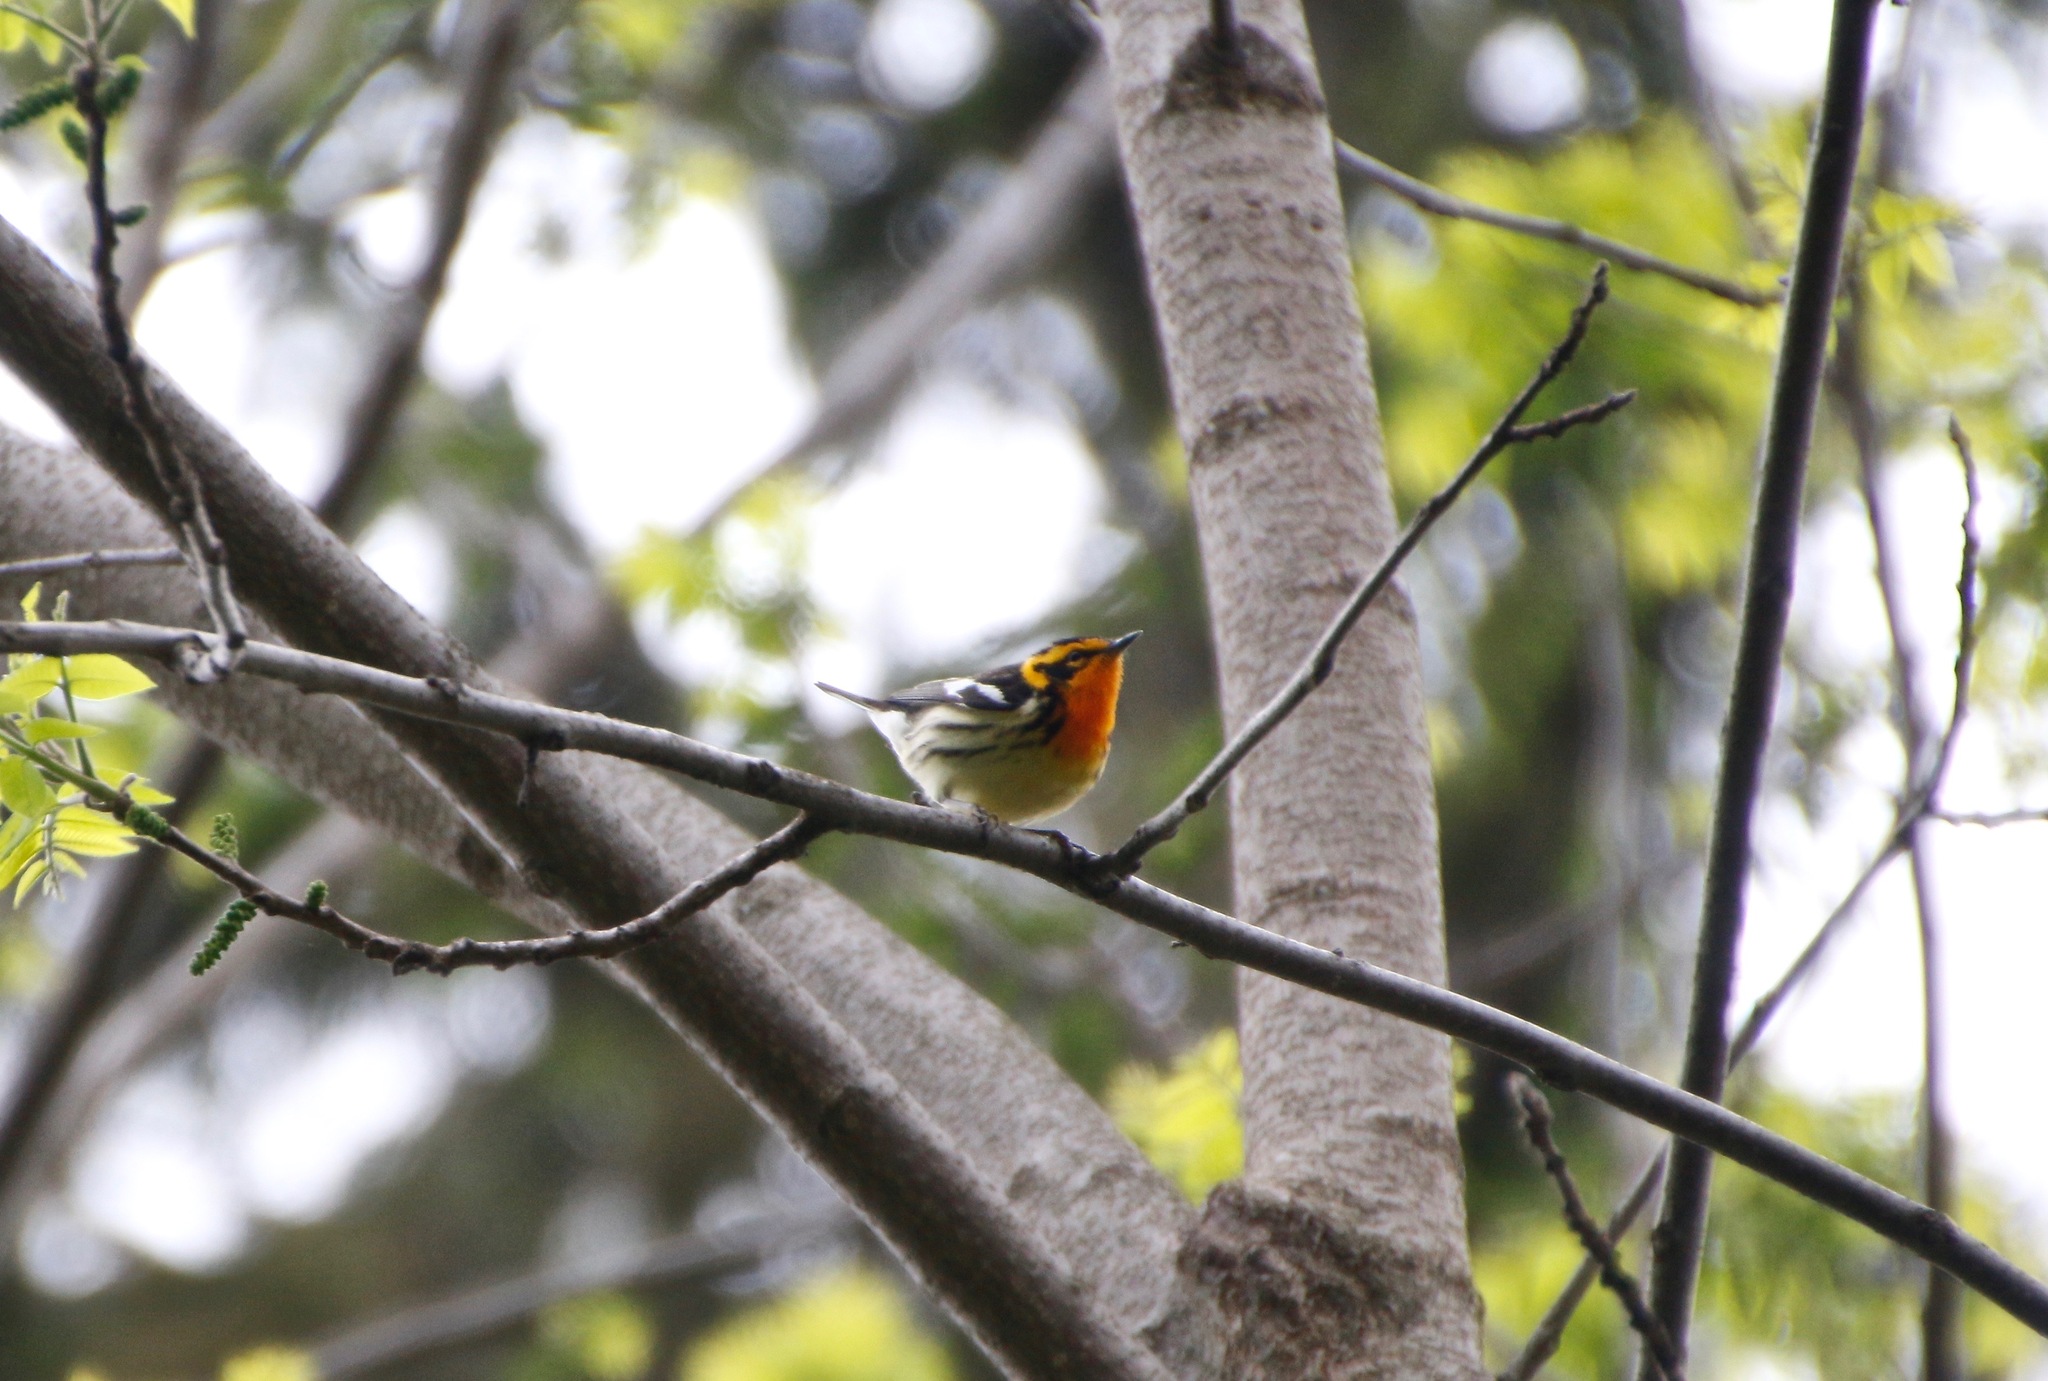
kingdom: Animalia
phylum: Chordata
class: Aves
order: Passeriformes
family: Parulidae
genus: Setophaga
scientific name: Setophaga fusca
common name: Blackburnian warbler
